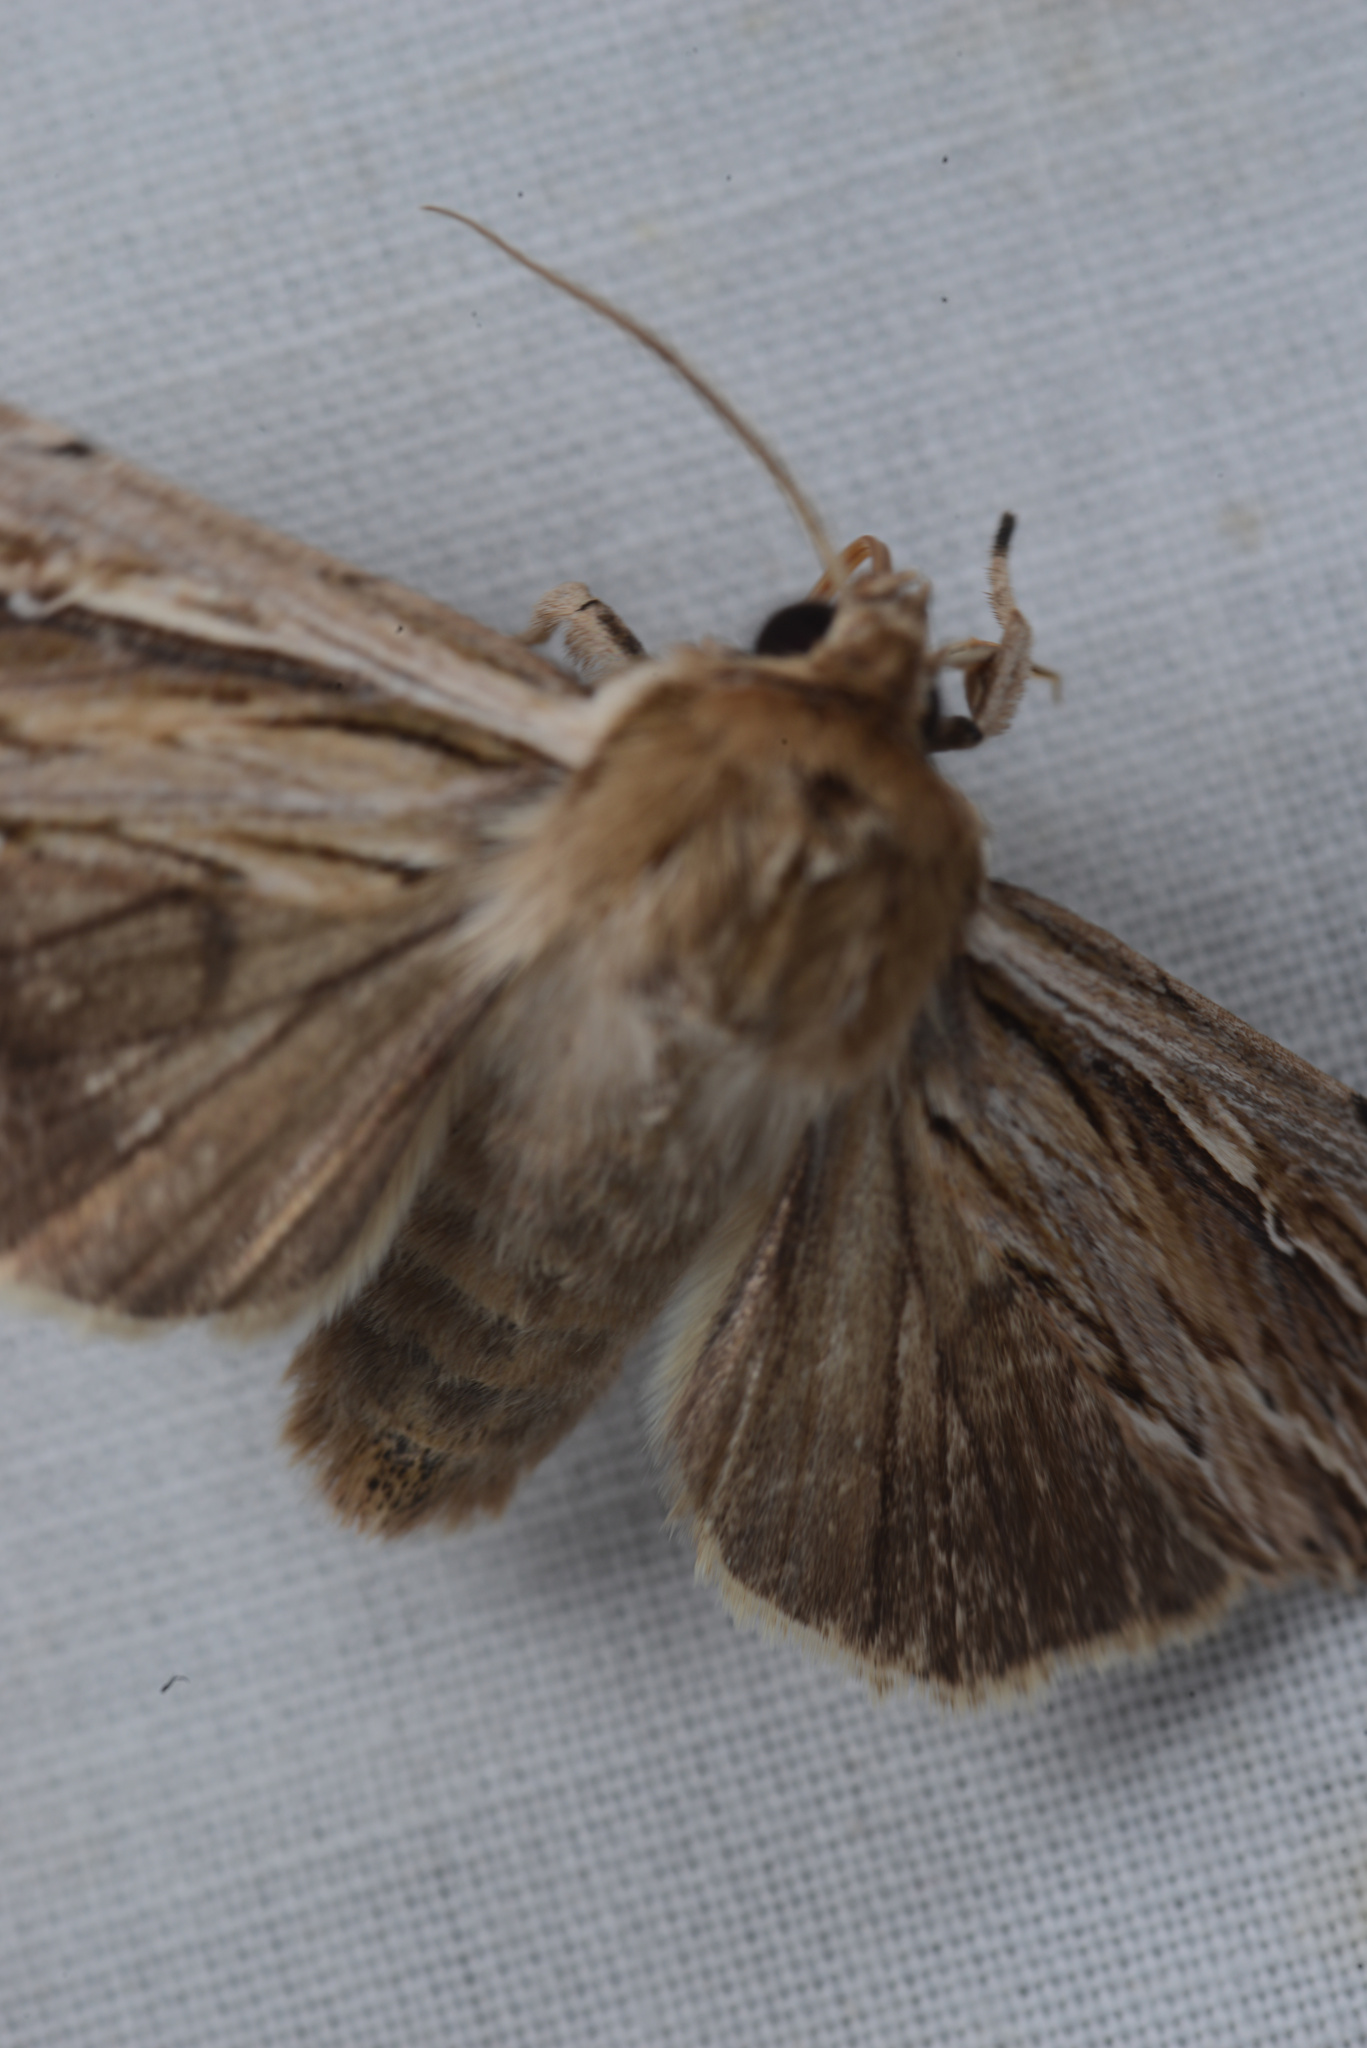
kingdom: Animalia
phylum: Arthropoda
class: Insecta
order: Lepidoptera
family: Noctuidae
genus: Persectania
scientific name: Persectania aversa
